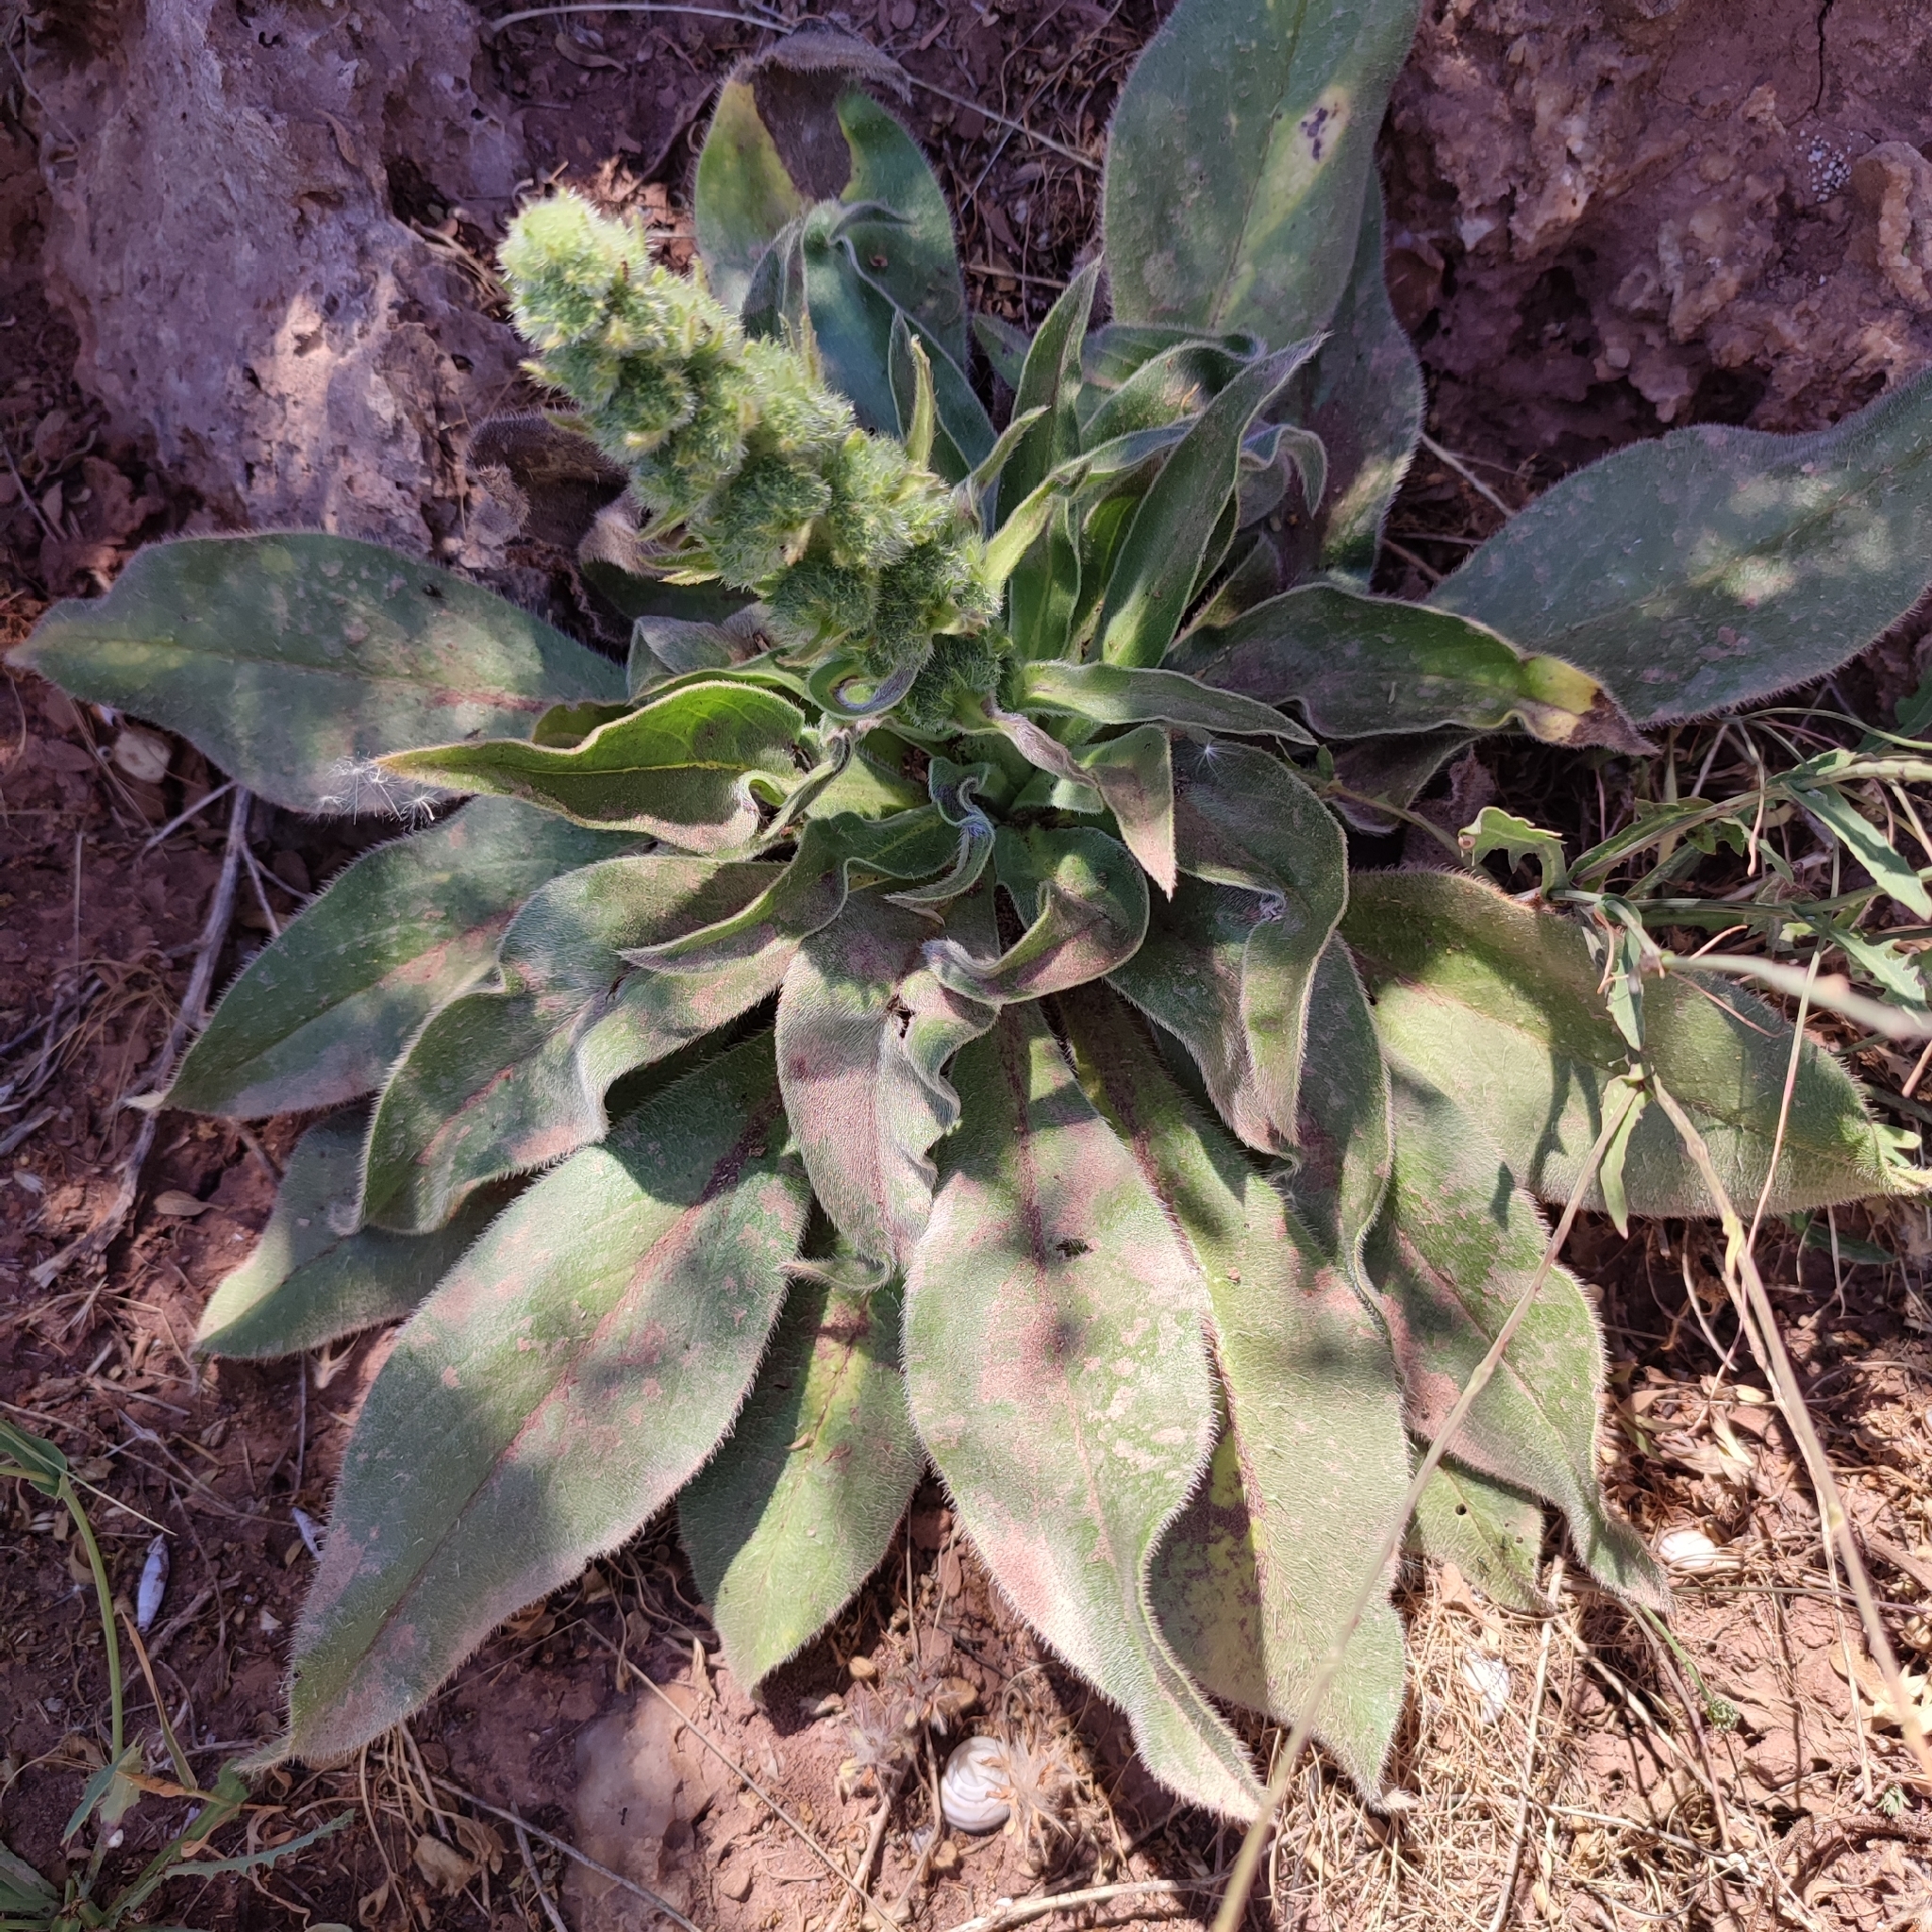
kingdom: Plantae
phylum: Tracheophyta
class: Magnoliopsida
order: Boraginales
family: Boraginaceae
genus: Echium
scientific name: Echium italicum
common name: Italian viper's bugloss
